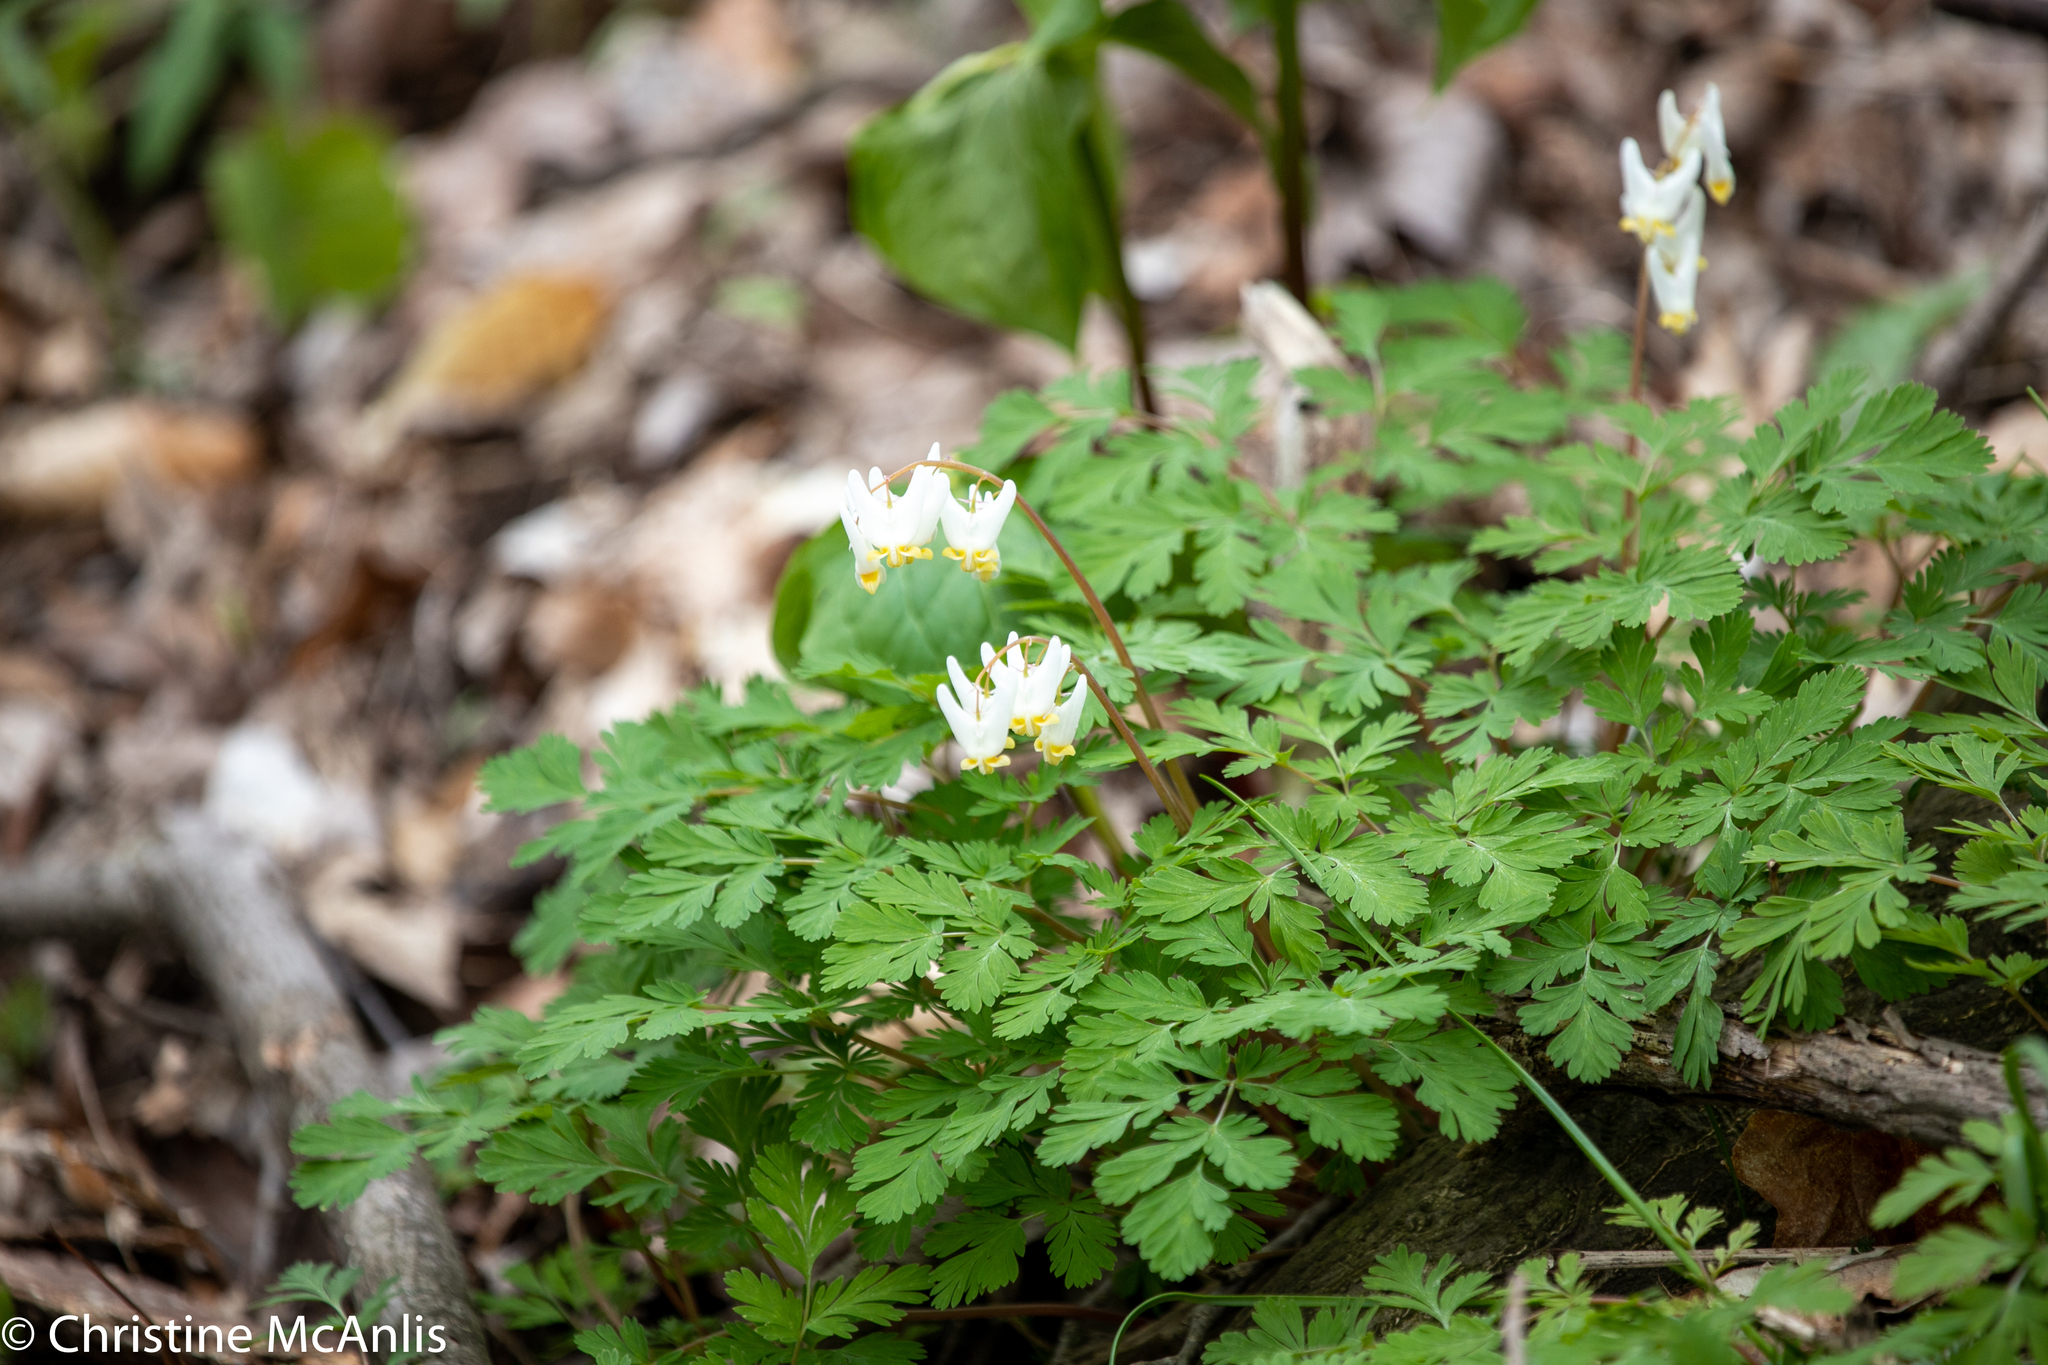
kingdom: Plantae
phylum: Tracheophyta
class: Magnoliopsida
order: Ranunculales
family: Papaveraceae
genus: Dicentra
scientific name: Dicentra cucullaria
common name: Dutchman's breeches
